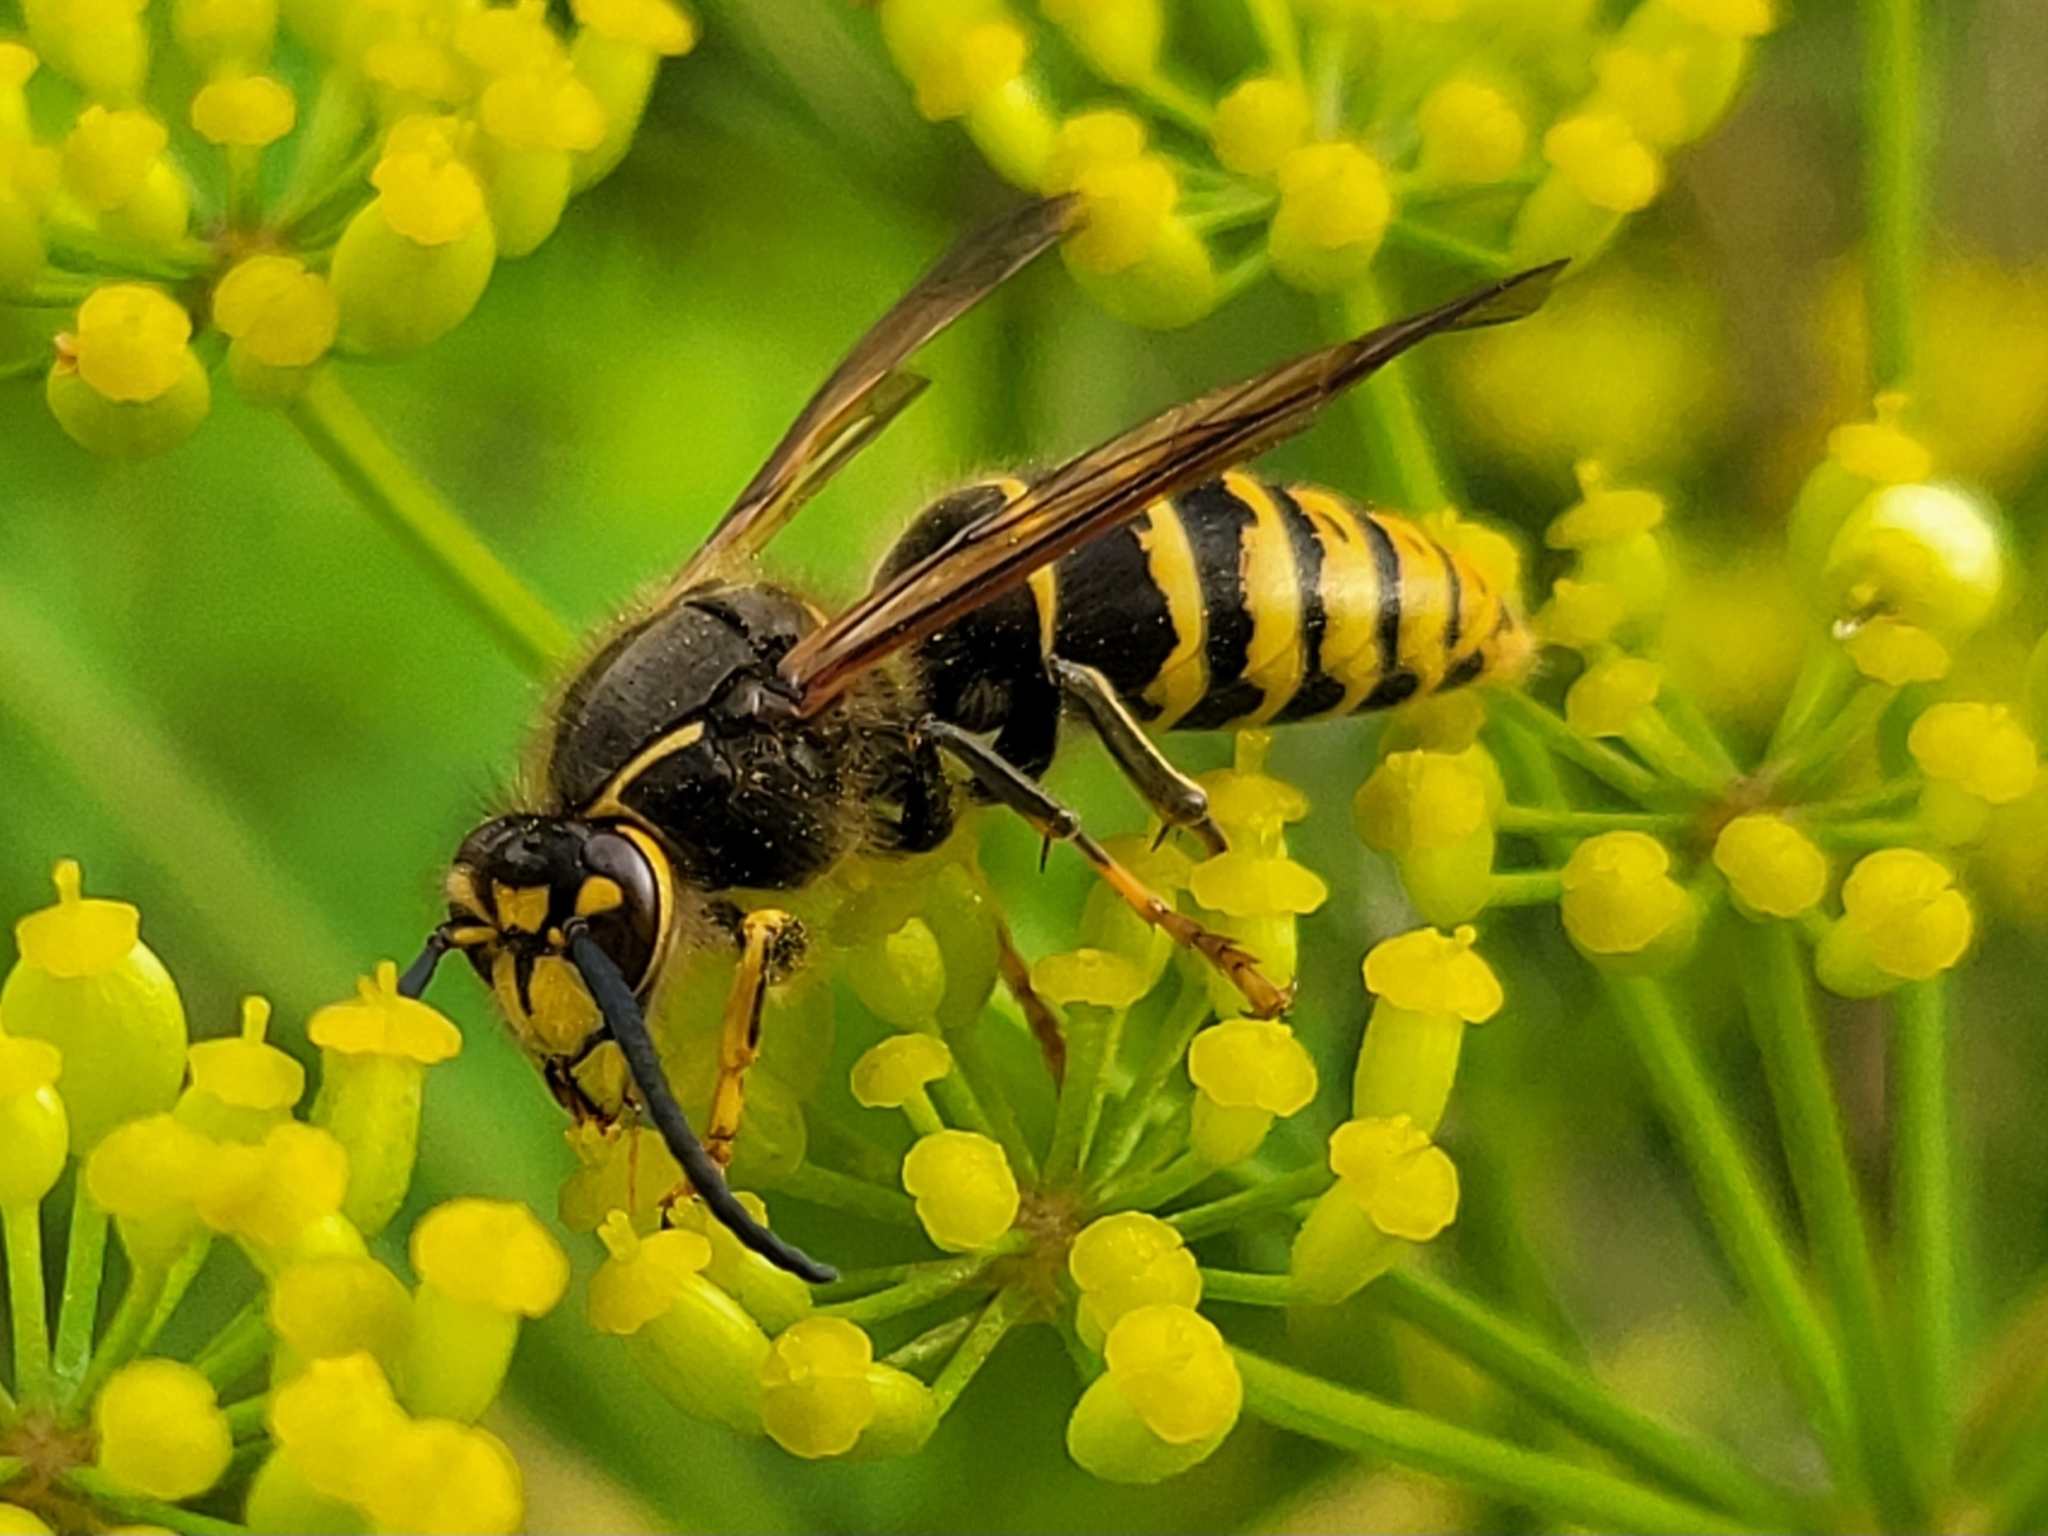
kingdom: Animalia
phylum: Arthropoda
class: Insecta
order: Hymenoptera
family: Vespidae
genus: Dolichovespula
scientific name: Dolichovespula media
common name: Median wasp
